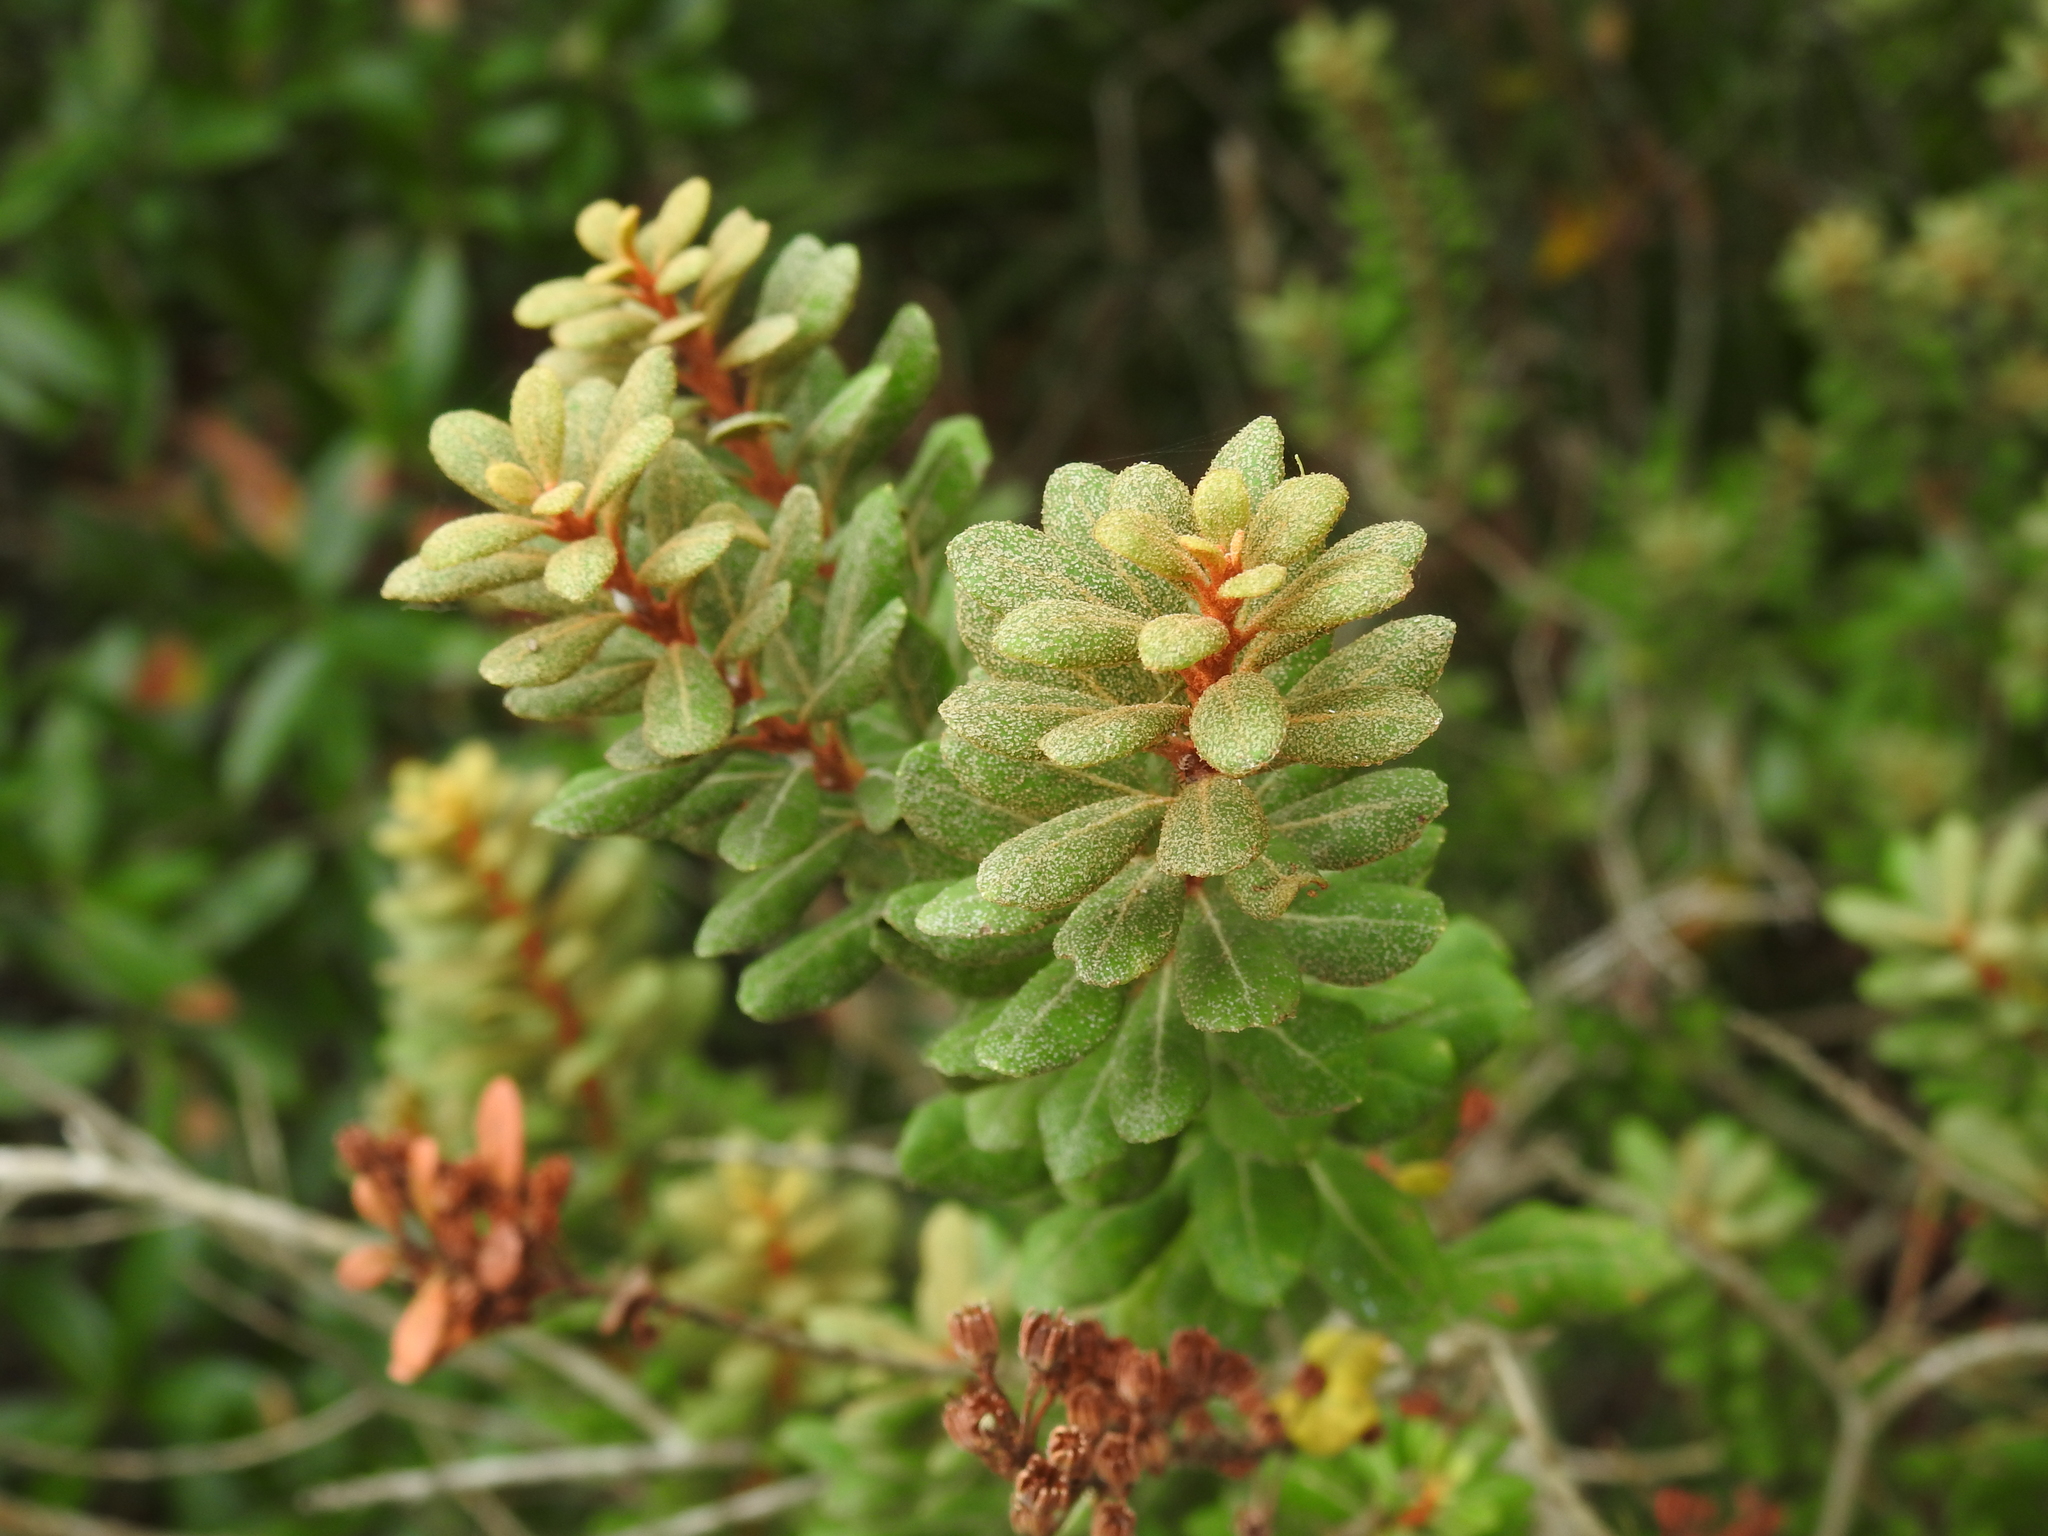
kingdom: Plantae
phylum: Tracheophyta
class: Magnoliopsida
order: Ericales
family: Ericaceae
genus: Lyonia
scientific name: Lyonia ferruginea
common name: Rusty lyonia
